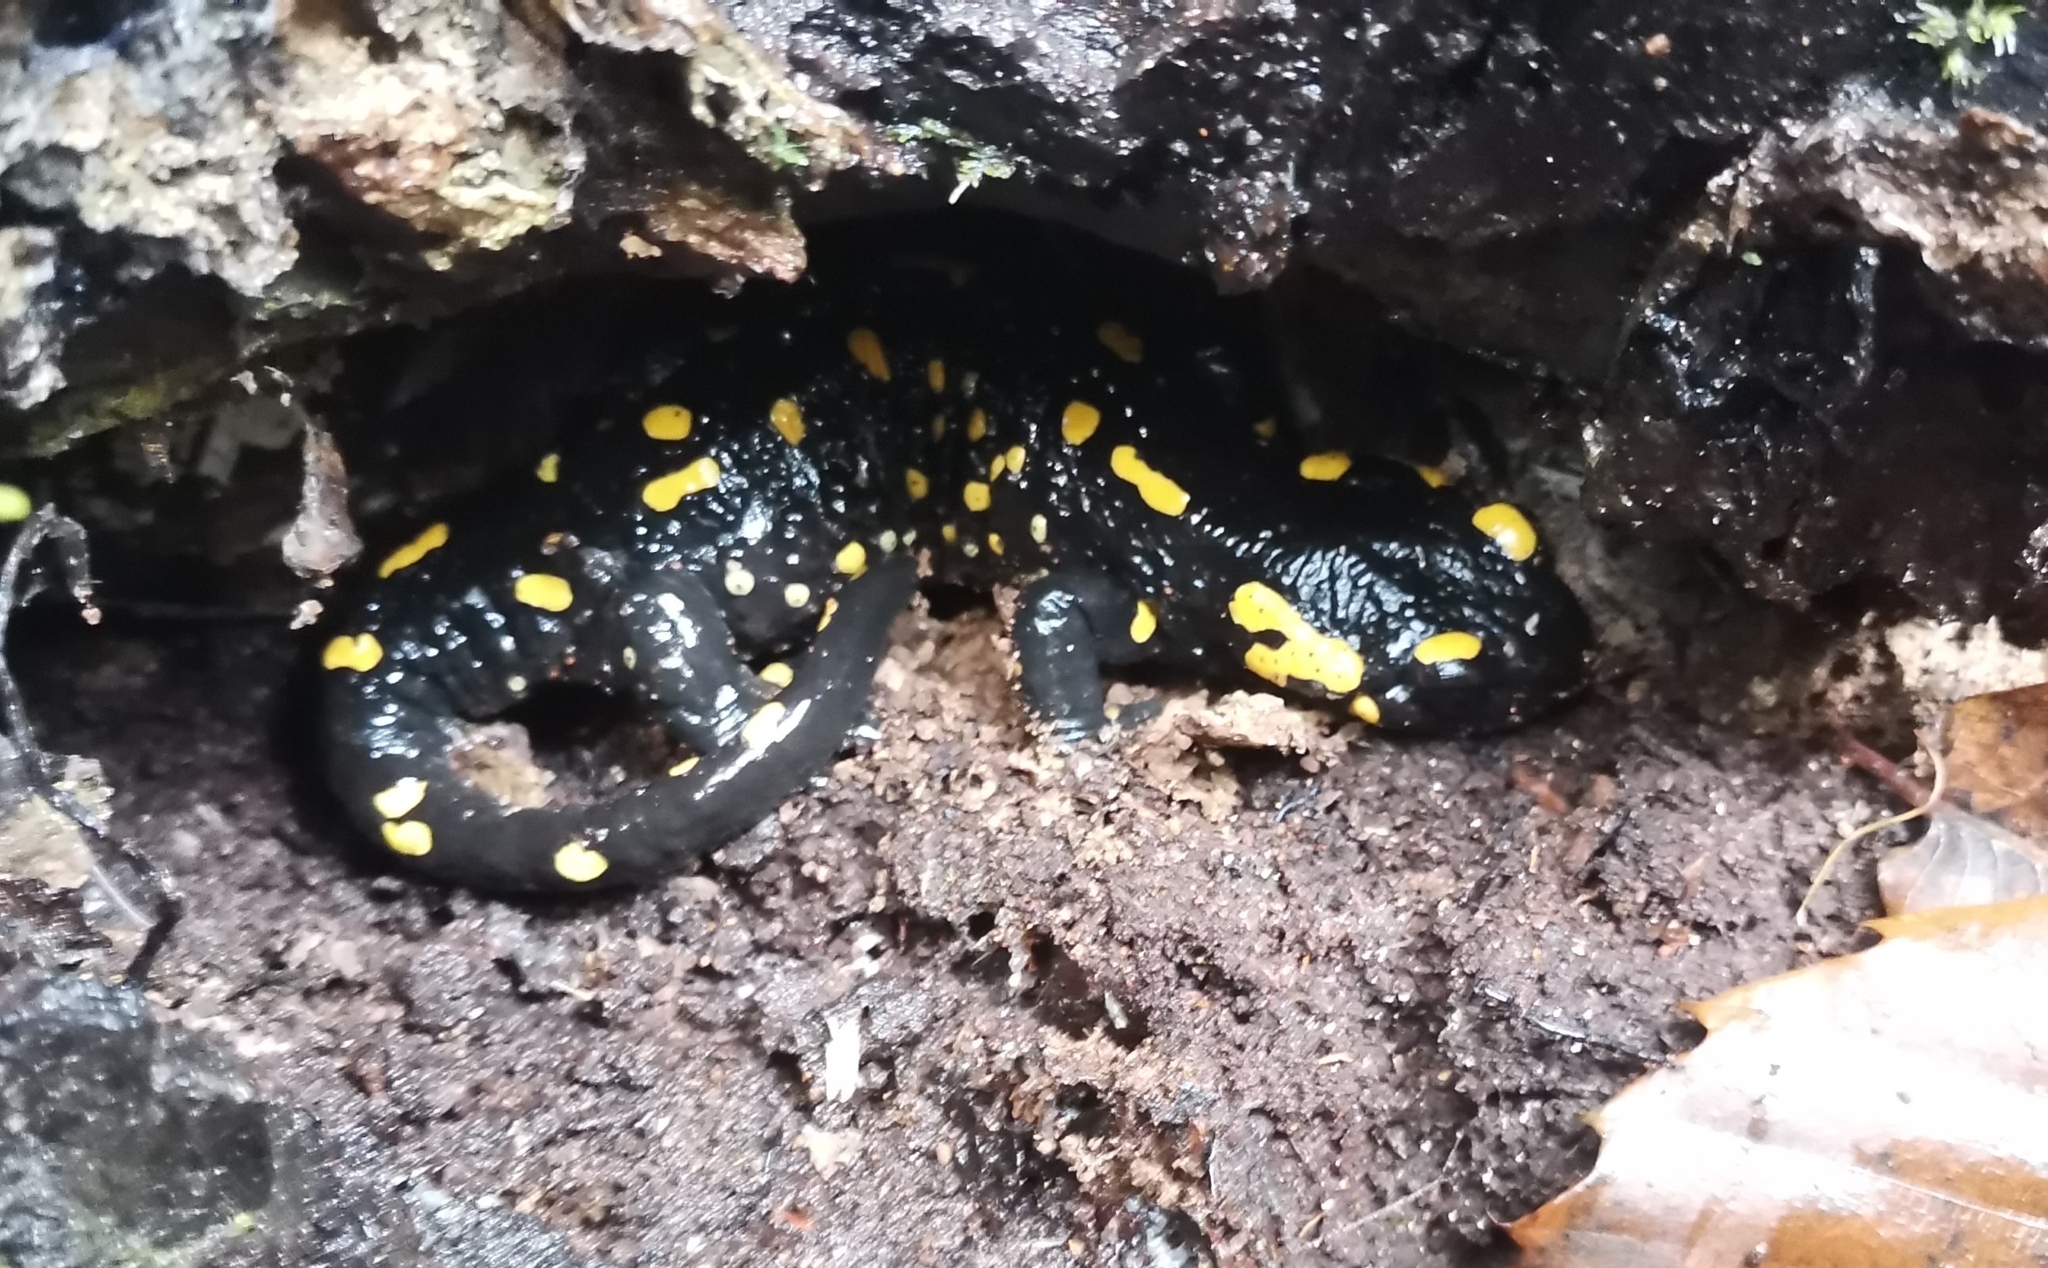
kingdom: Animalia
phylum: Chordata
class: Amphibia
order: Caudata
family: Salamandridae
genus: Salamandra
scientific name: Salamandra salamandra
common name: Fire salamander
